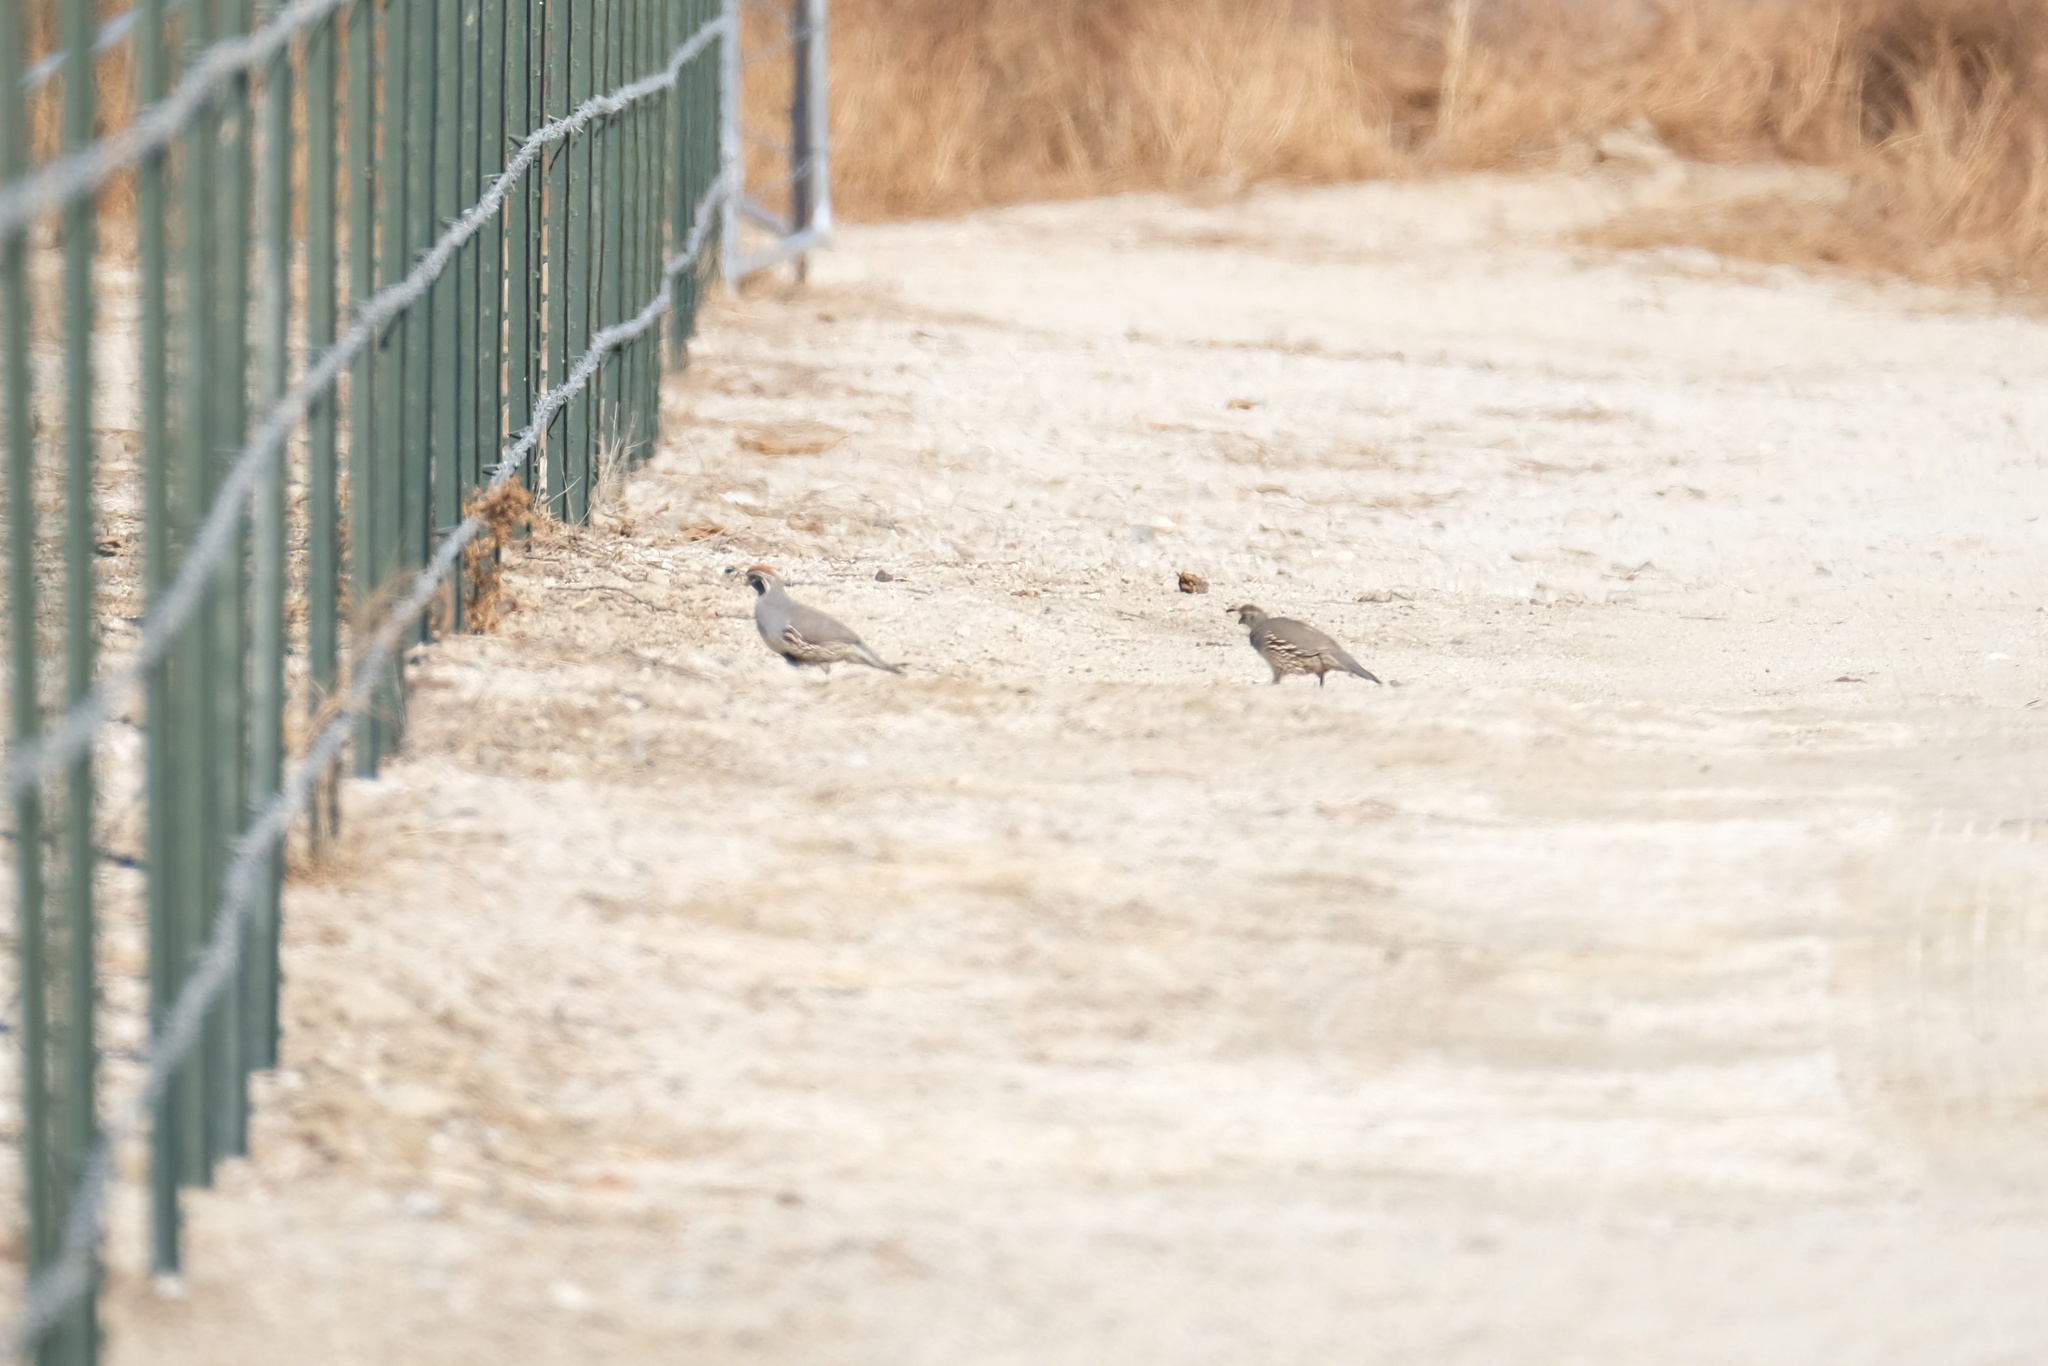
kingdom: Animalia
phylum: Chordata
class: Aves
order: Galliformes
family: Odontophoridae
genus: Callipepla
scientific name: Callipepla gambelii
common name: Gambel's quail
